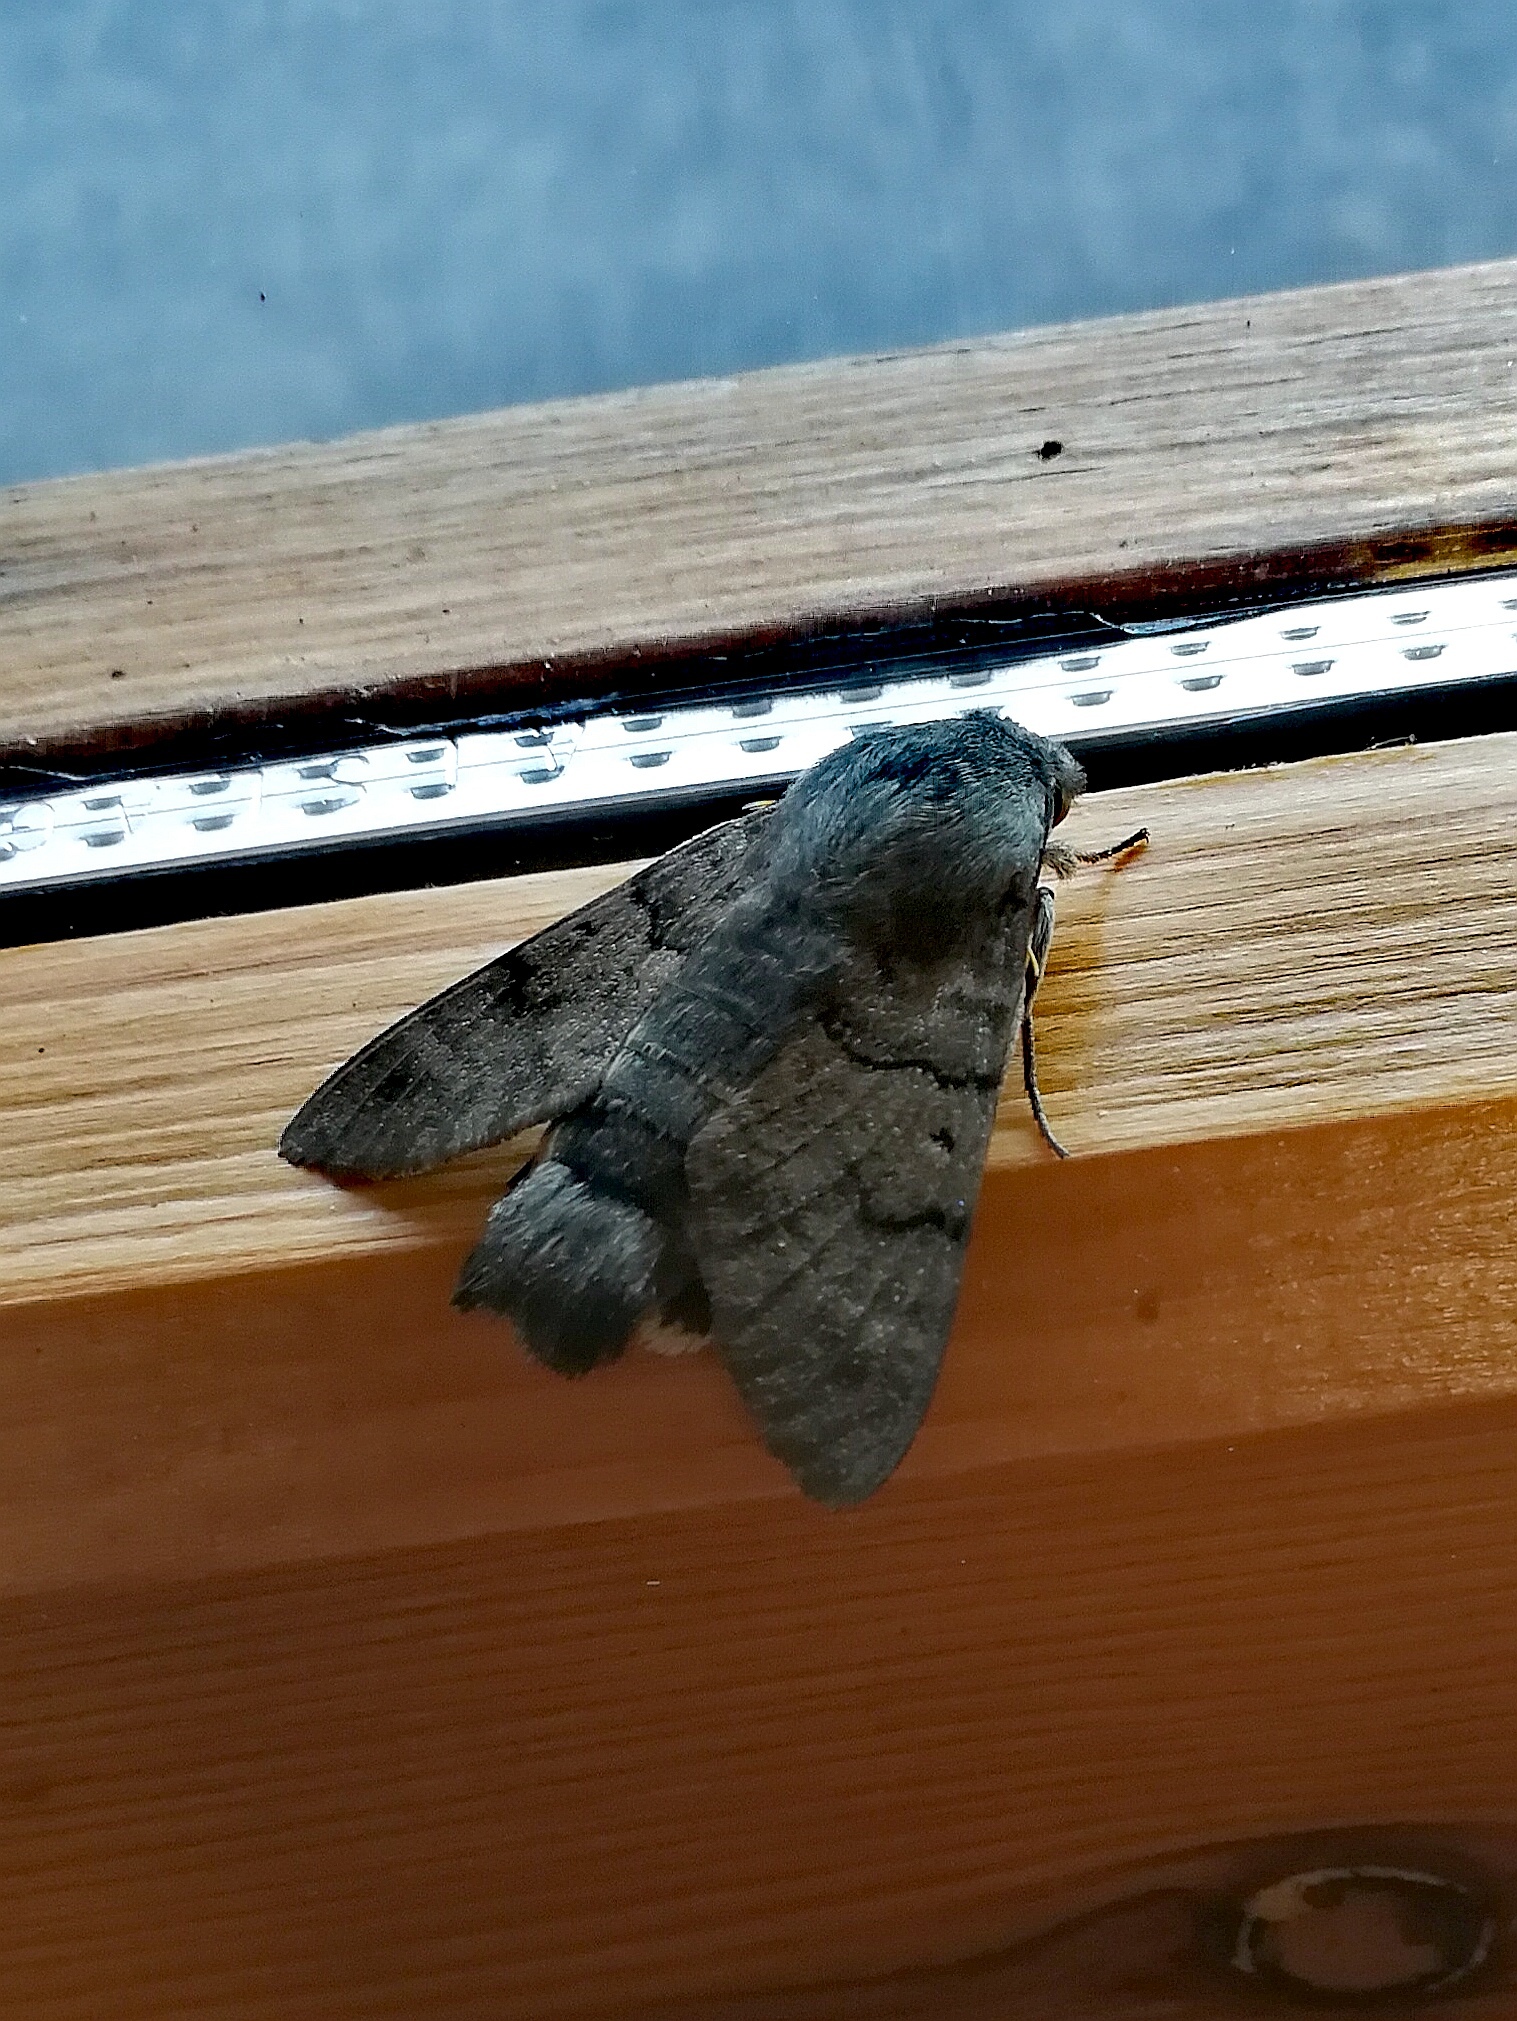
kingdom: Animalia
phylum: Arthropoda
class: Insecta
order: Lepidoptera
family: Sphingidae
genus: Macroglossum
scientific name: Macroglossum stellatarum
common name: Humming-bird hawk-moth
